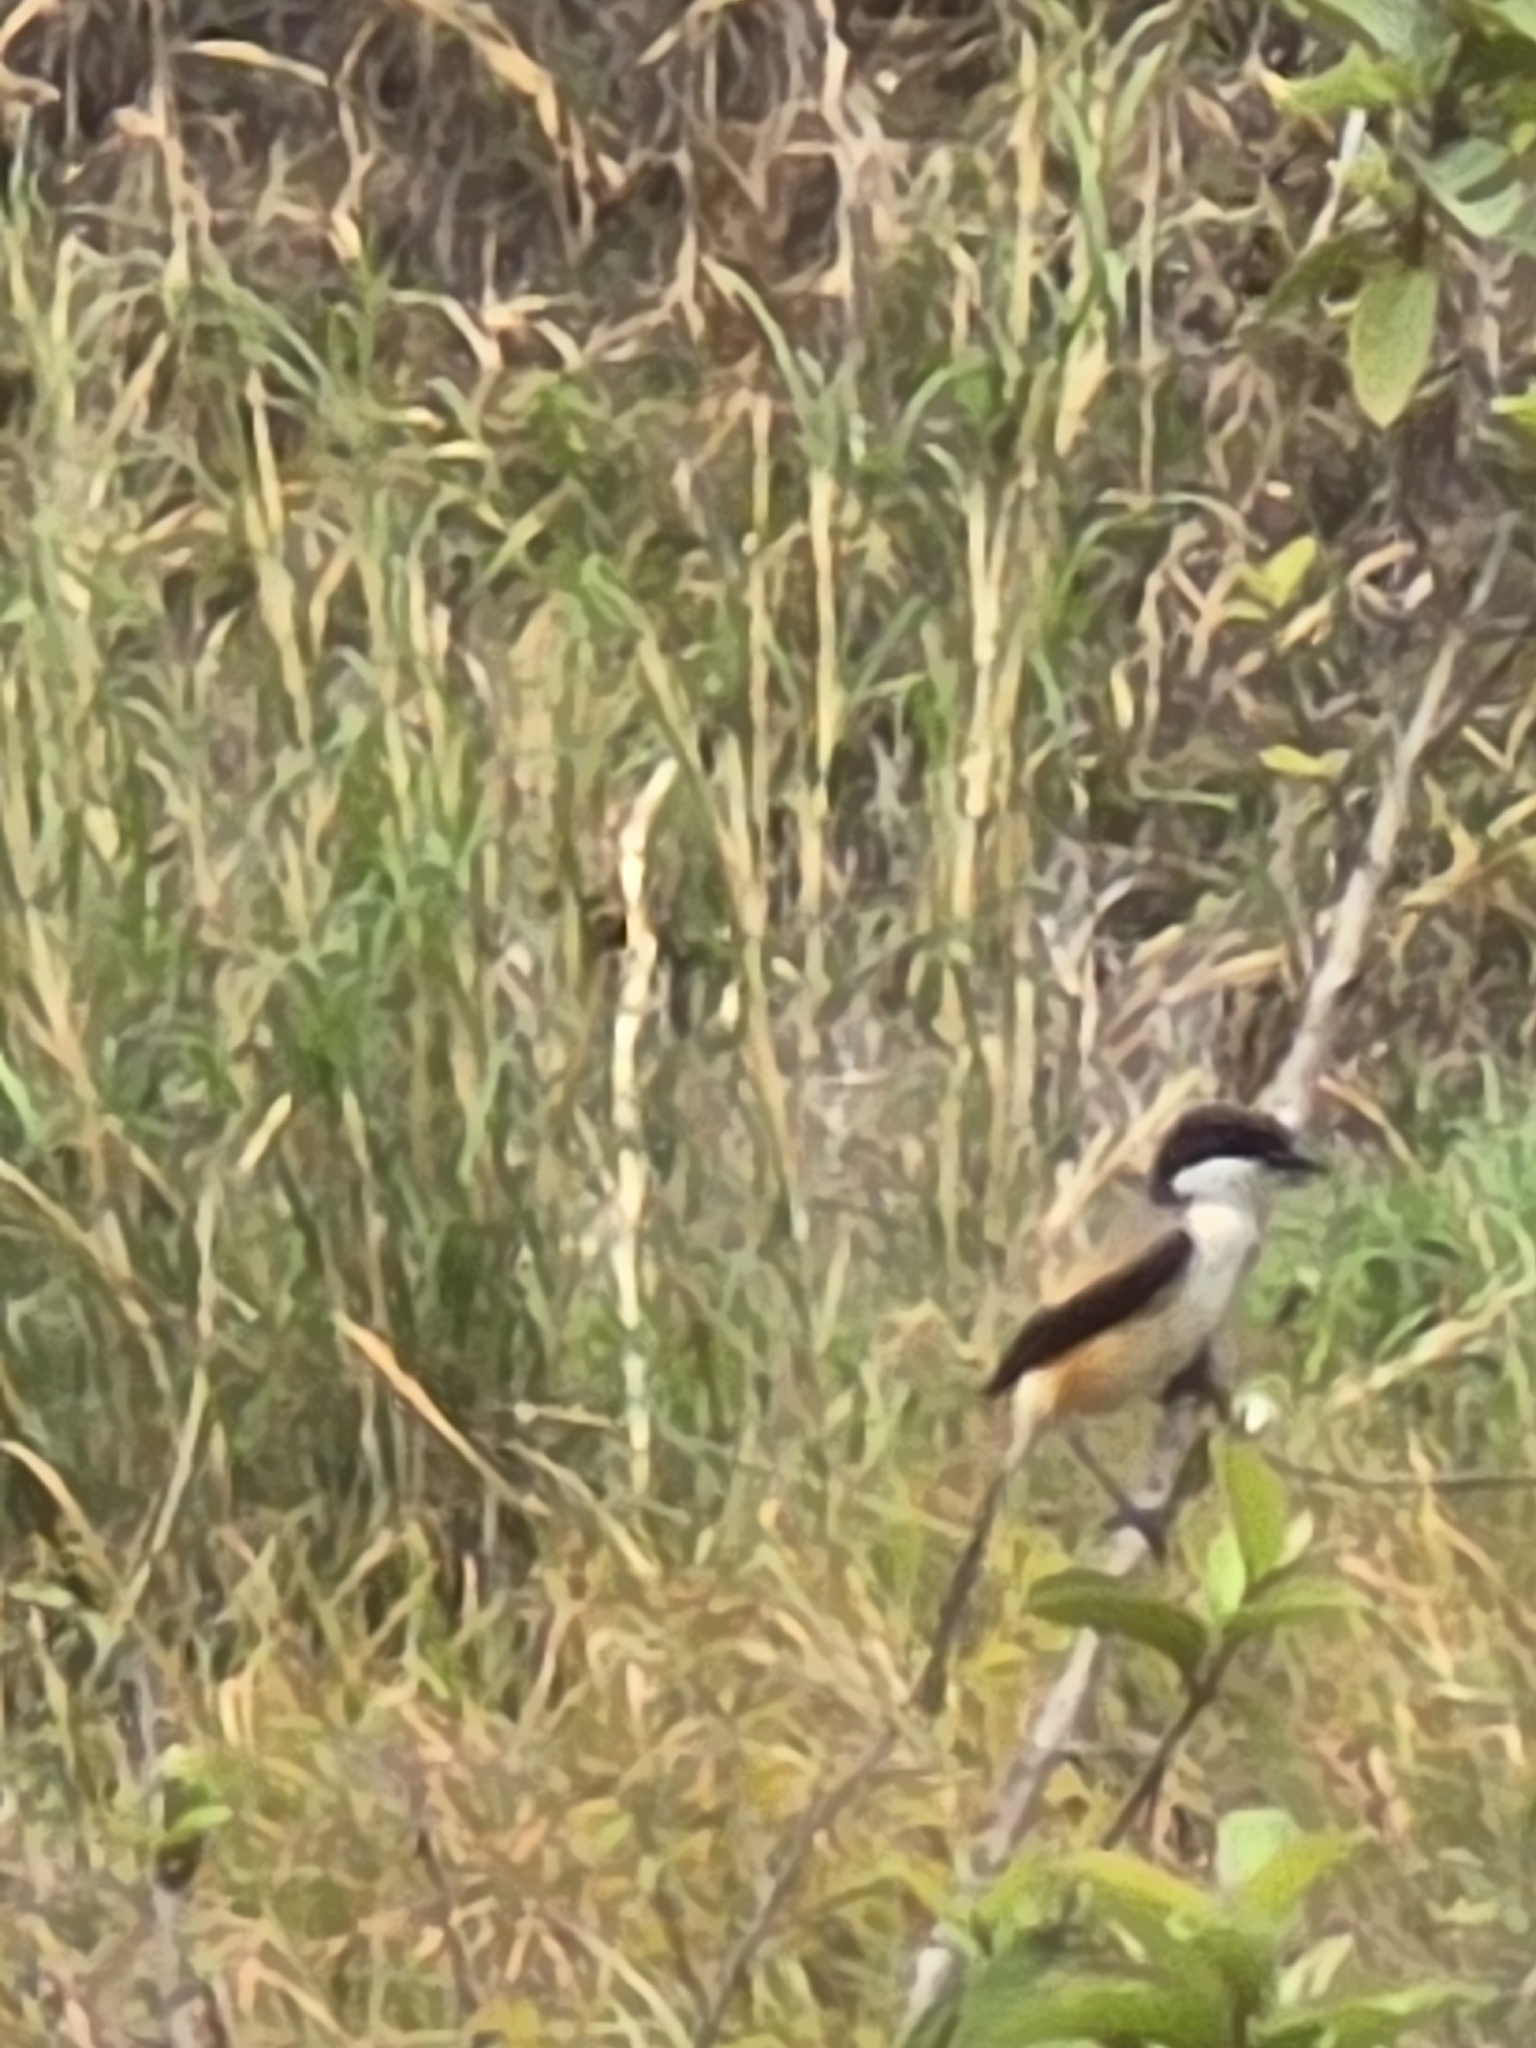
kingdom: Animalia
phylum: Chordata
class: Aves
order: Passeriformes
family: Laniidae
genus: Lanius
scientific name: Lanius schach
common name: Long-tailed shrike
